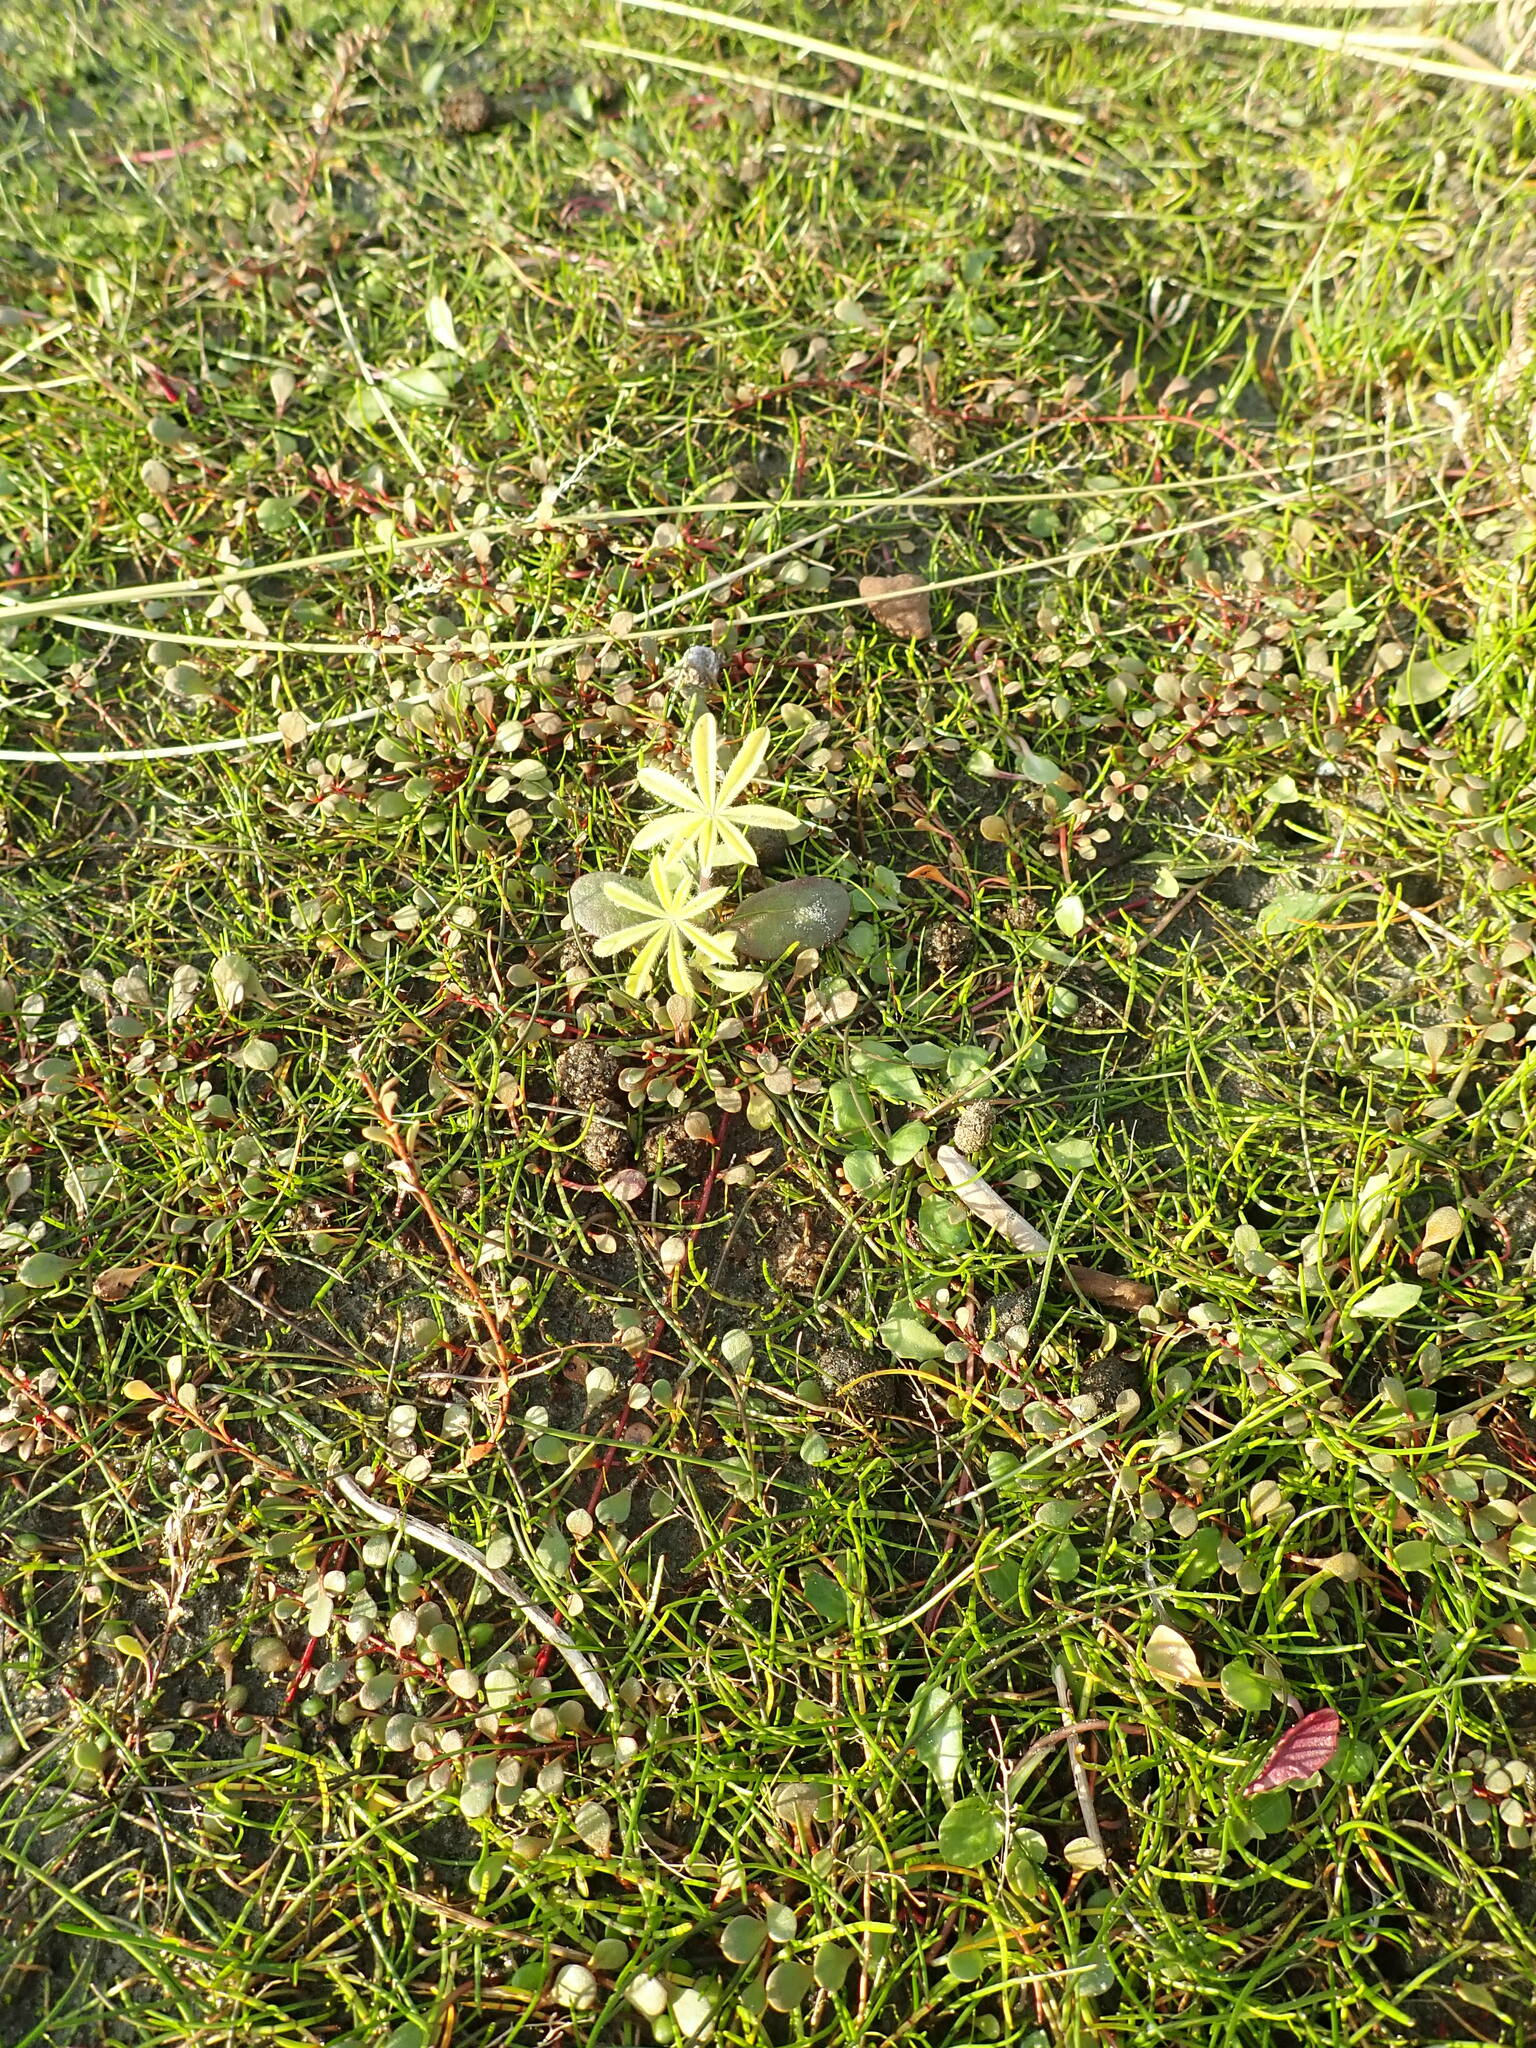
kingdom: Plantae
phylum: Tracheophyta
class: Magnoliopsida
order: Fabales
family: Fabaceae
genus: Lupinus
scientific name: Lupinus arboreus
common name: Yellow bush lupine
